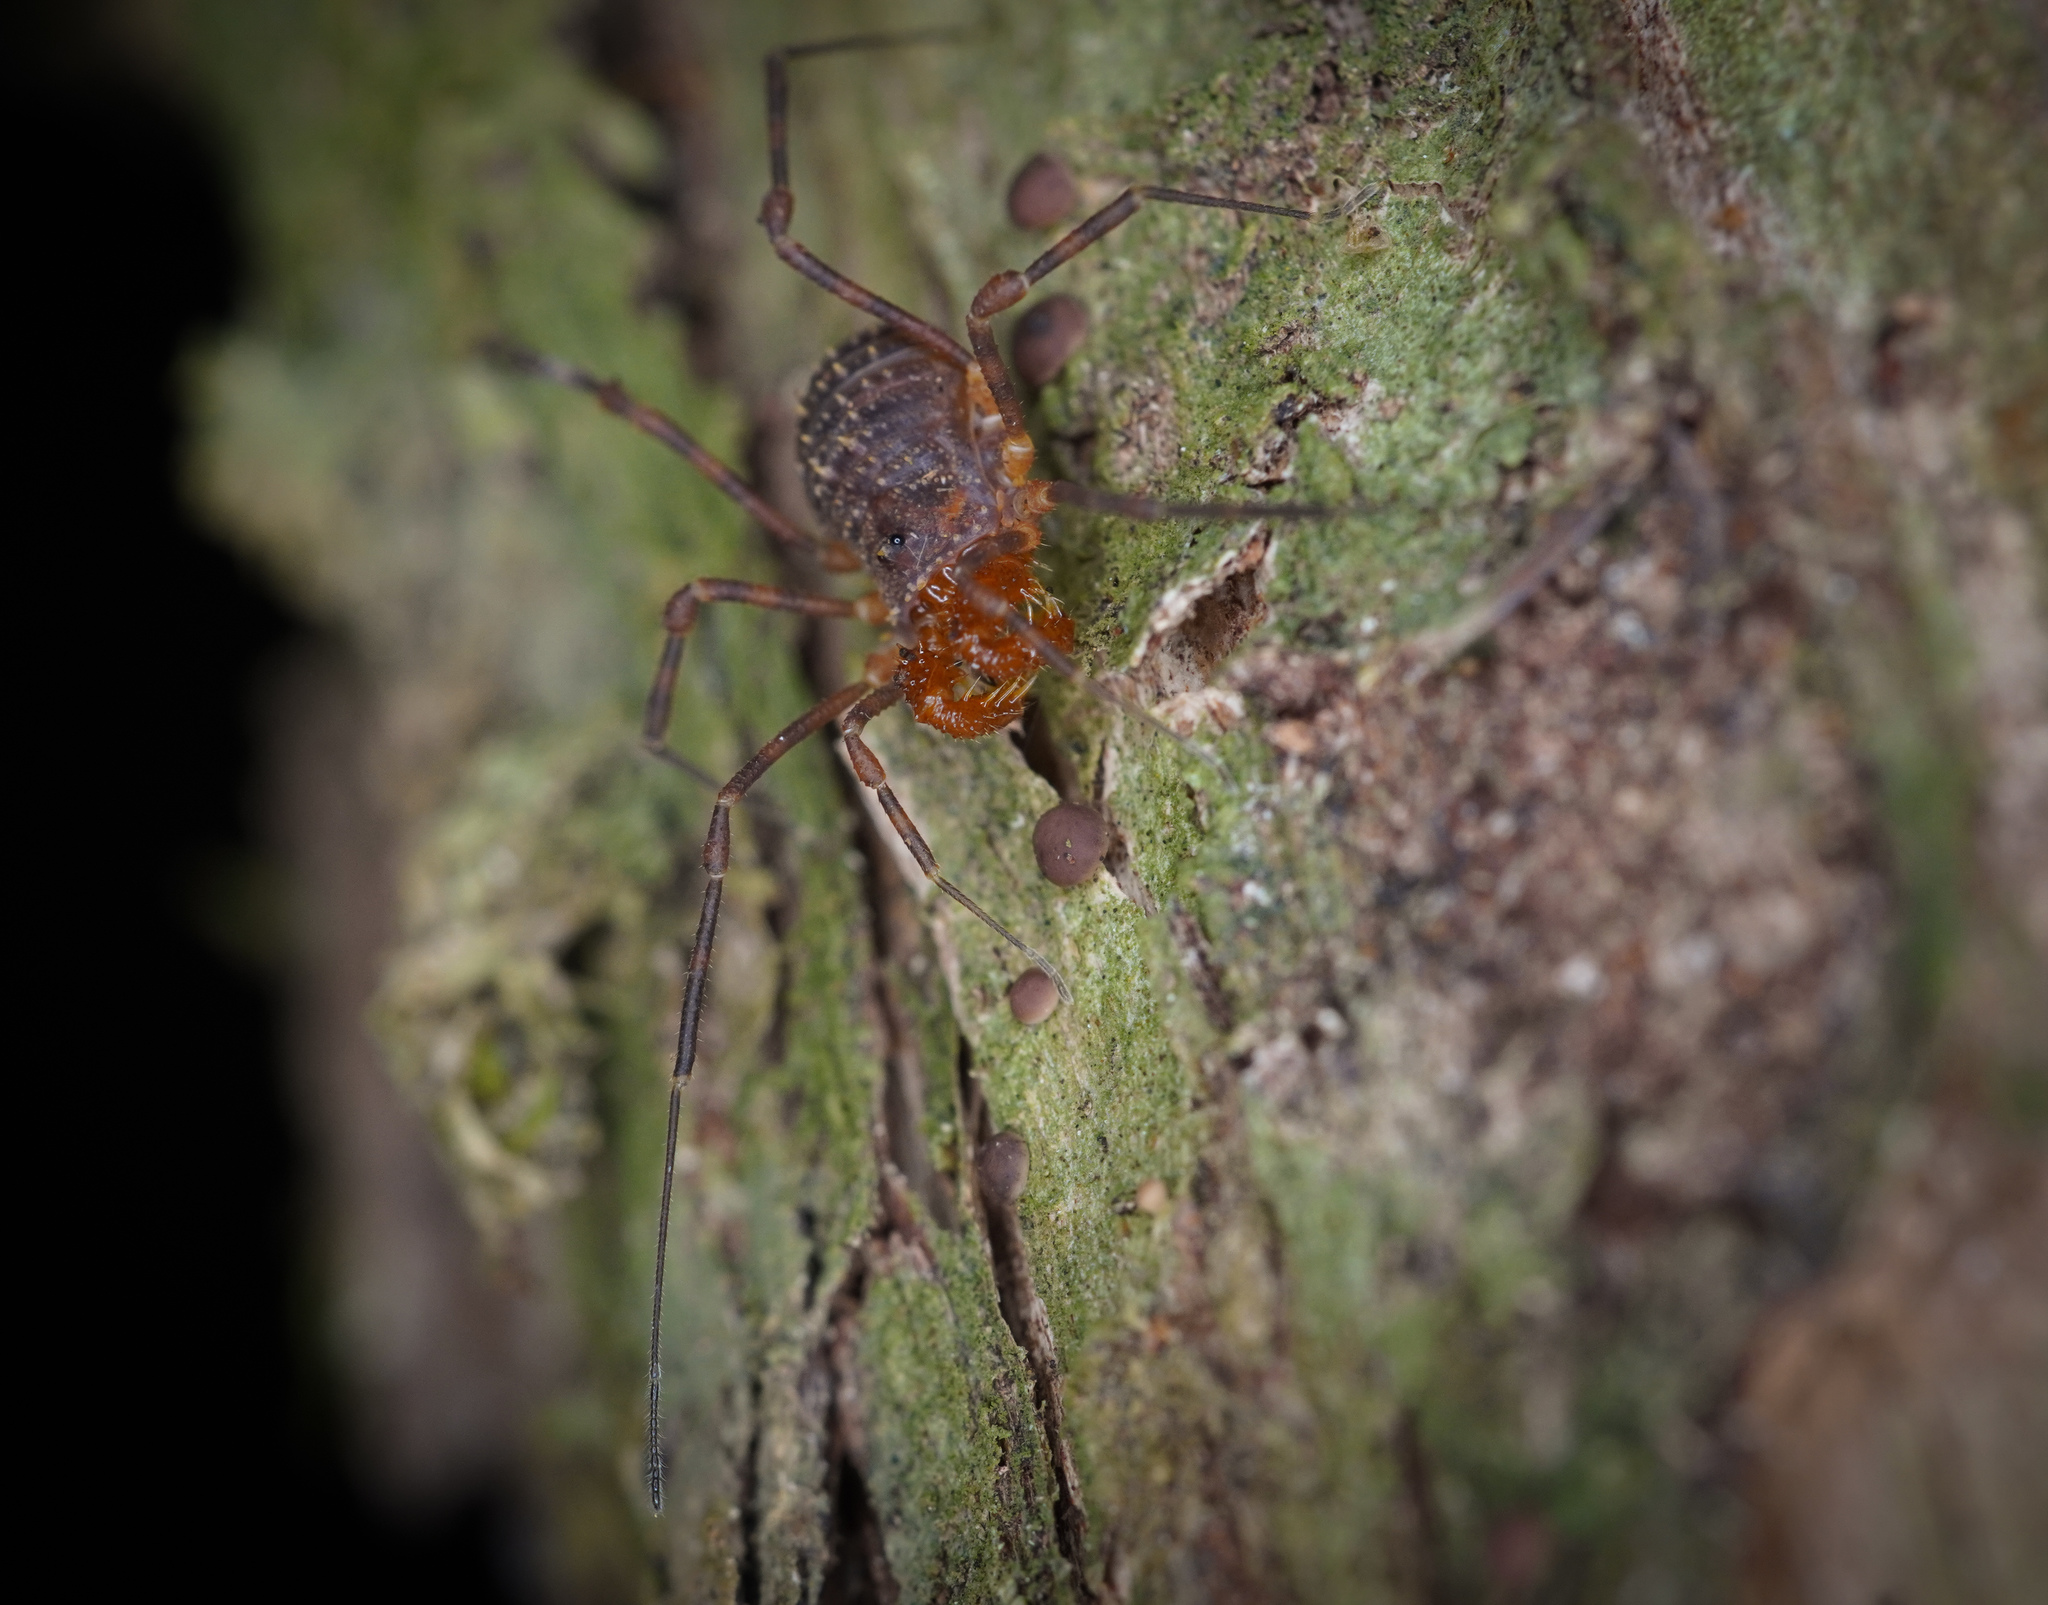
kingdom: Animalia
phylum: Arthropoda
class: Arachnida
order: Opiliones
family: Triaenonychidae
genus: Prasma
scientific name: Prasma tuberculata
